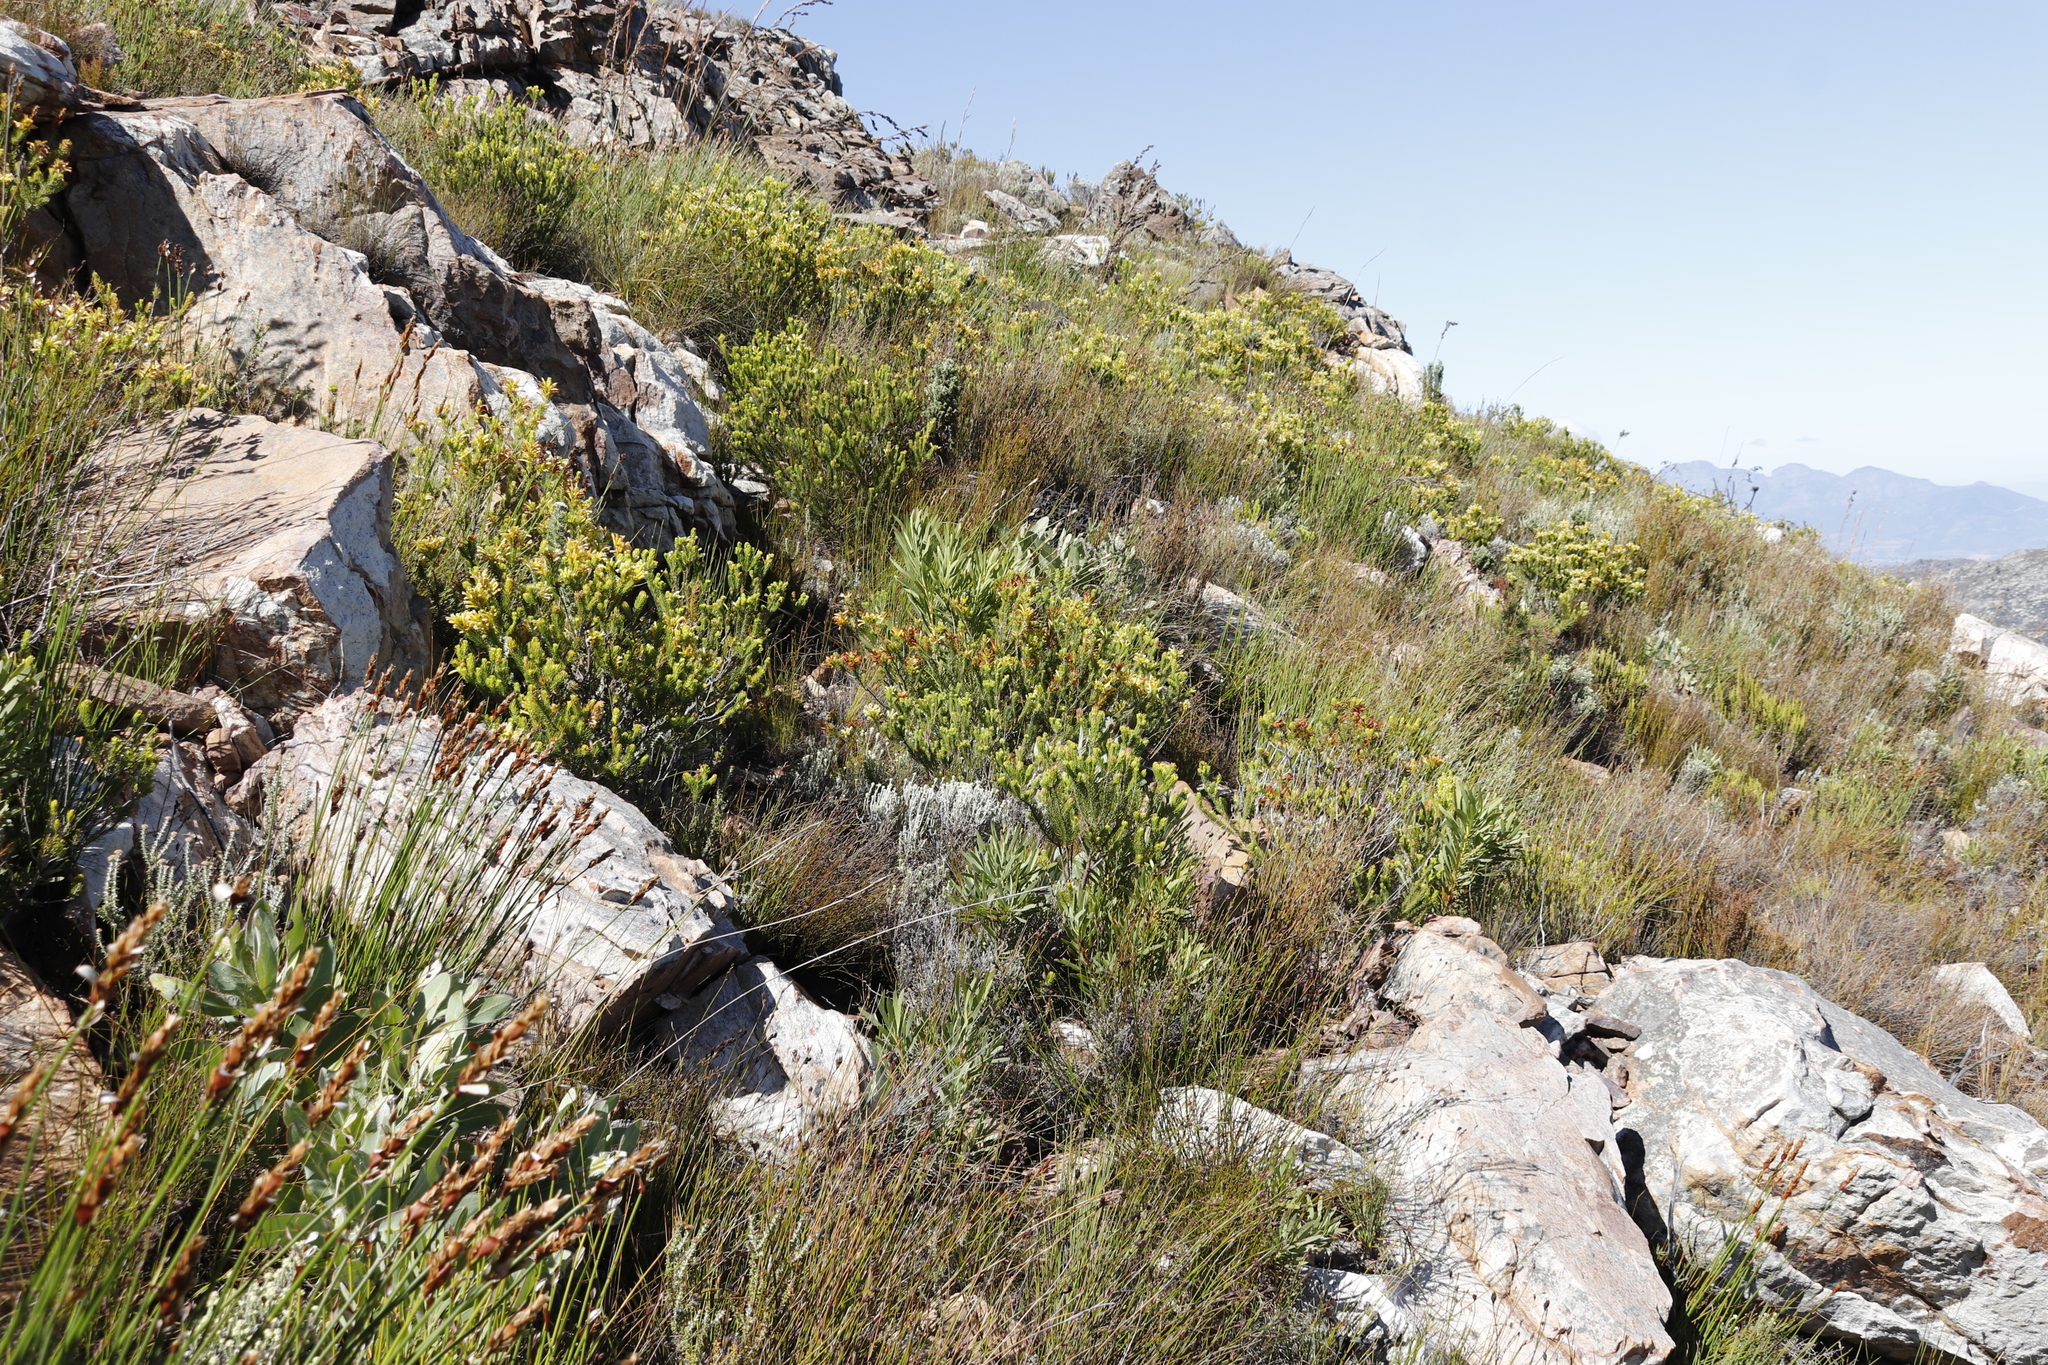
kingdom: Plantae
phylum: Tracheophyta
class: Magnoliopsida
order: Proteales
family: Proteaceae
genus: Protea
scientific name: Protea repens
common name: Sugarbush
